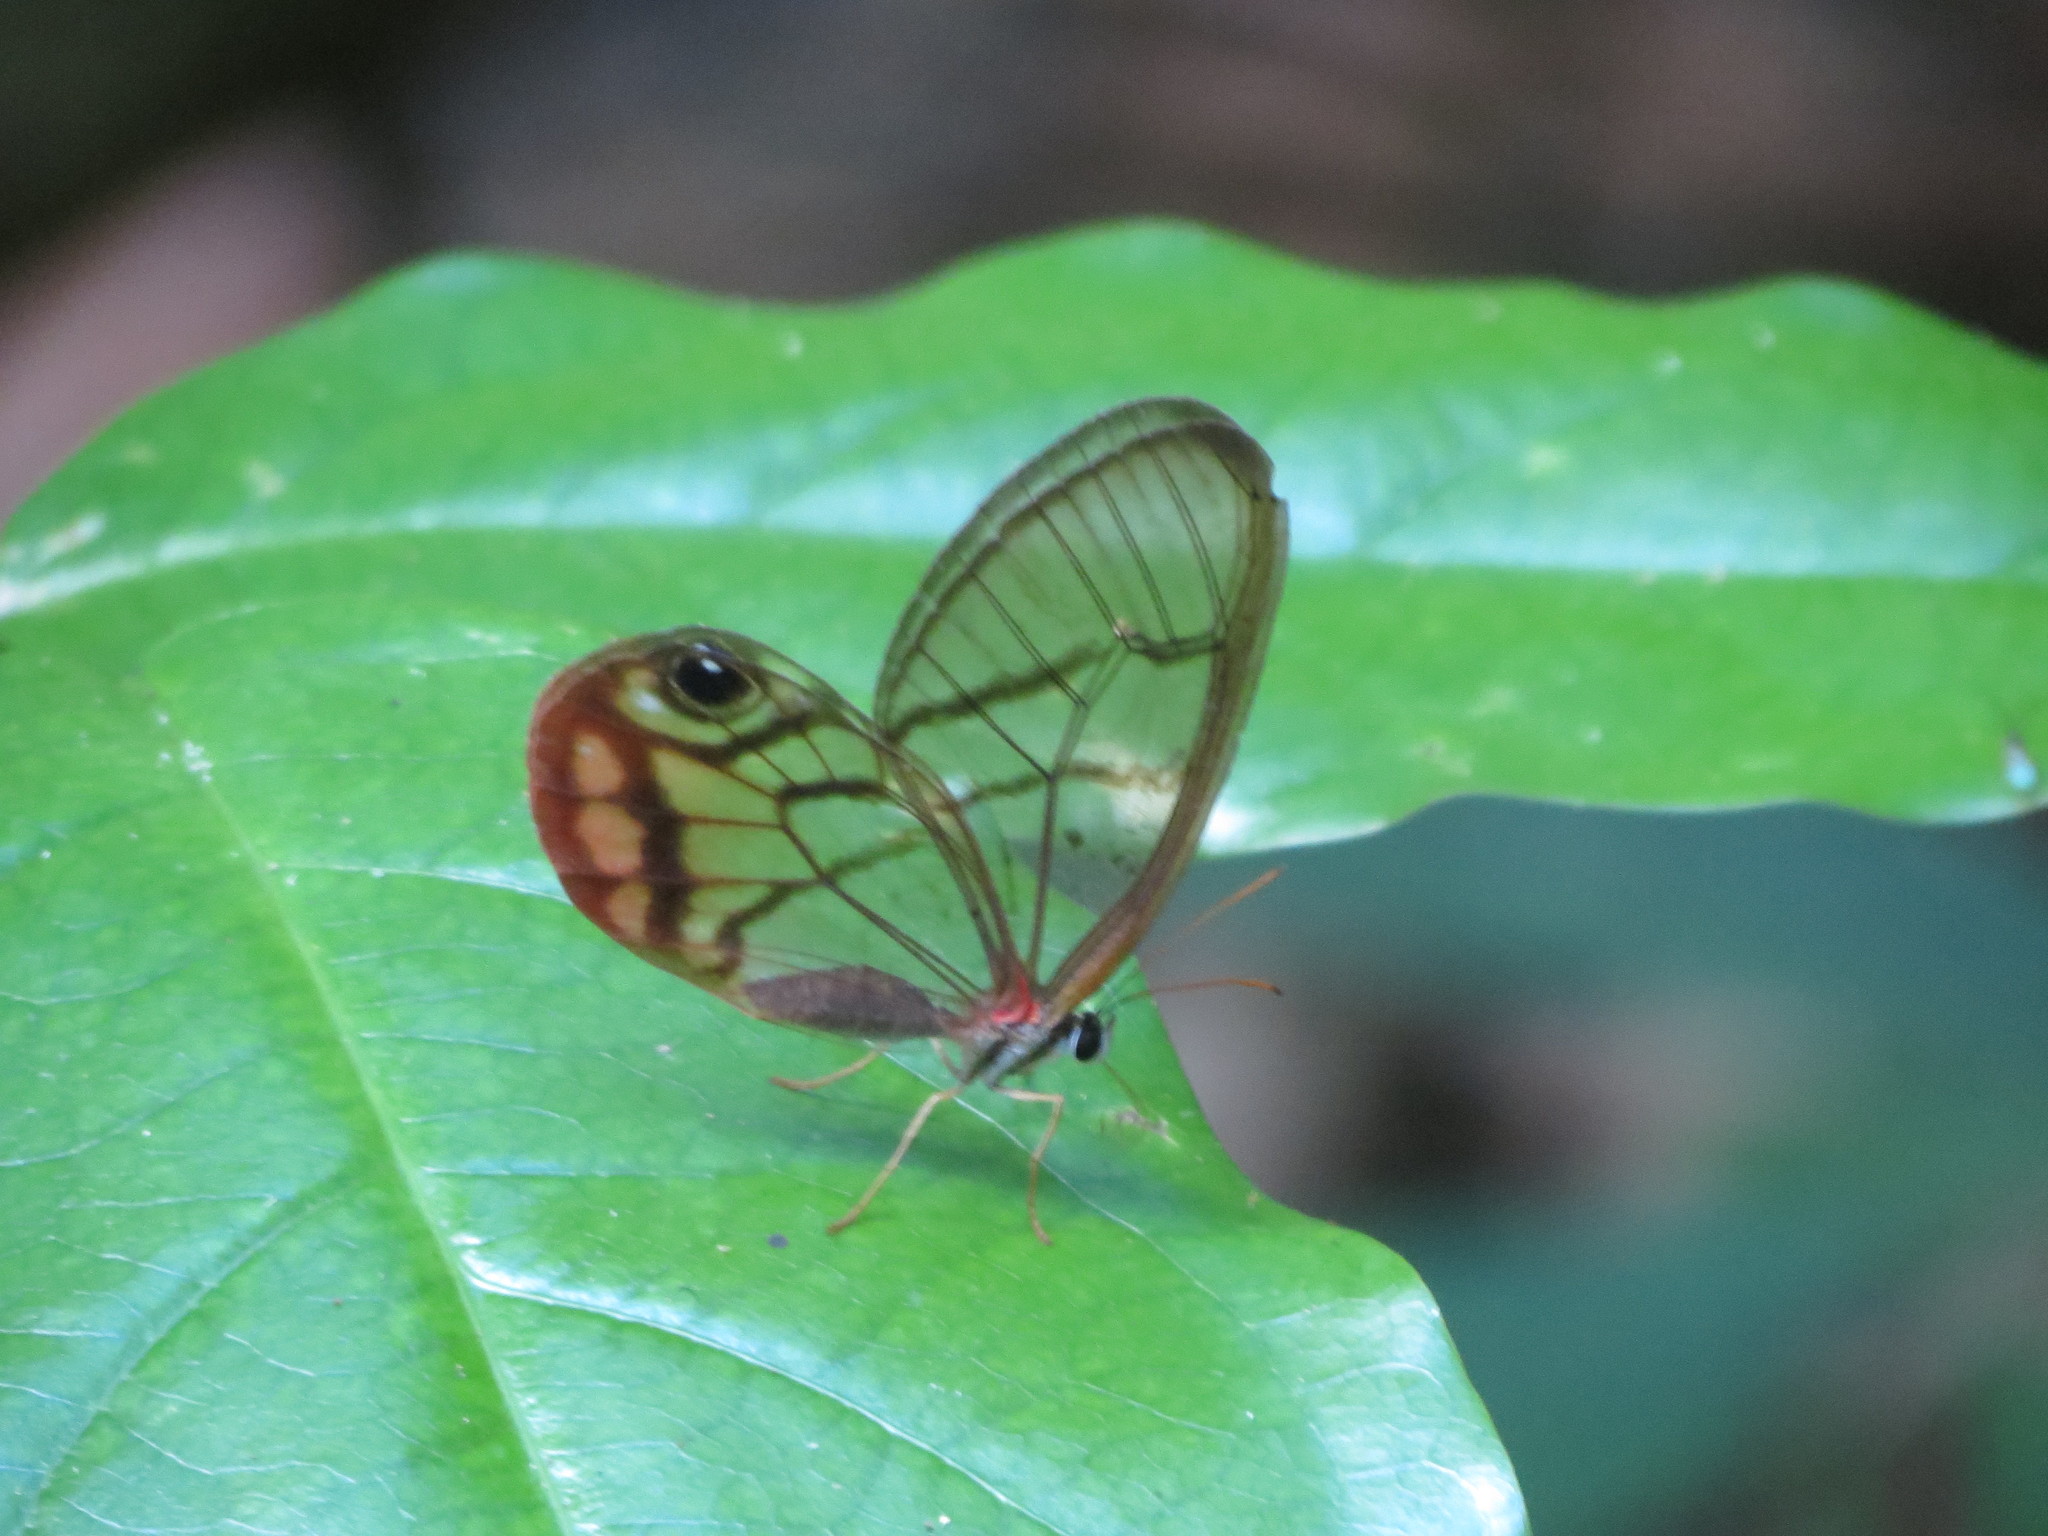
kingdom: Animalia
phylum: Arthropoda
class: Insecta
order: Lepidoptera
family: Nymphalidae
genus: Cithaerias
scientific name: Cithaerias pireta
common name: Rusted clearwing-satyr
